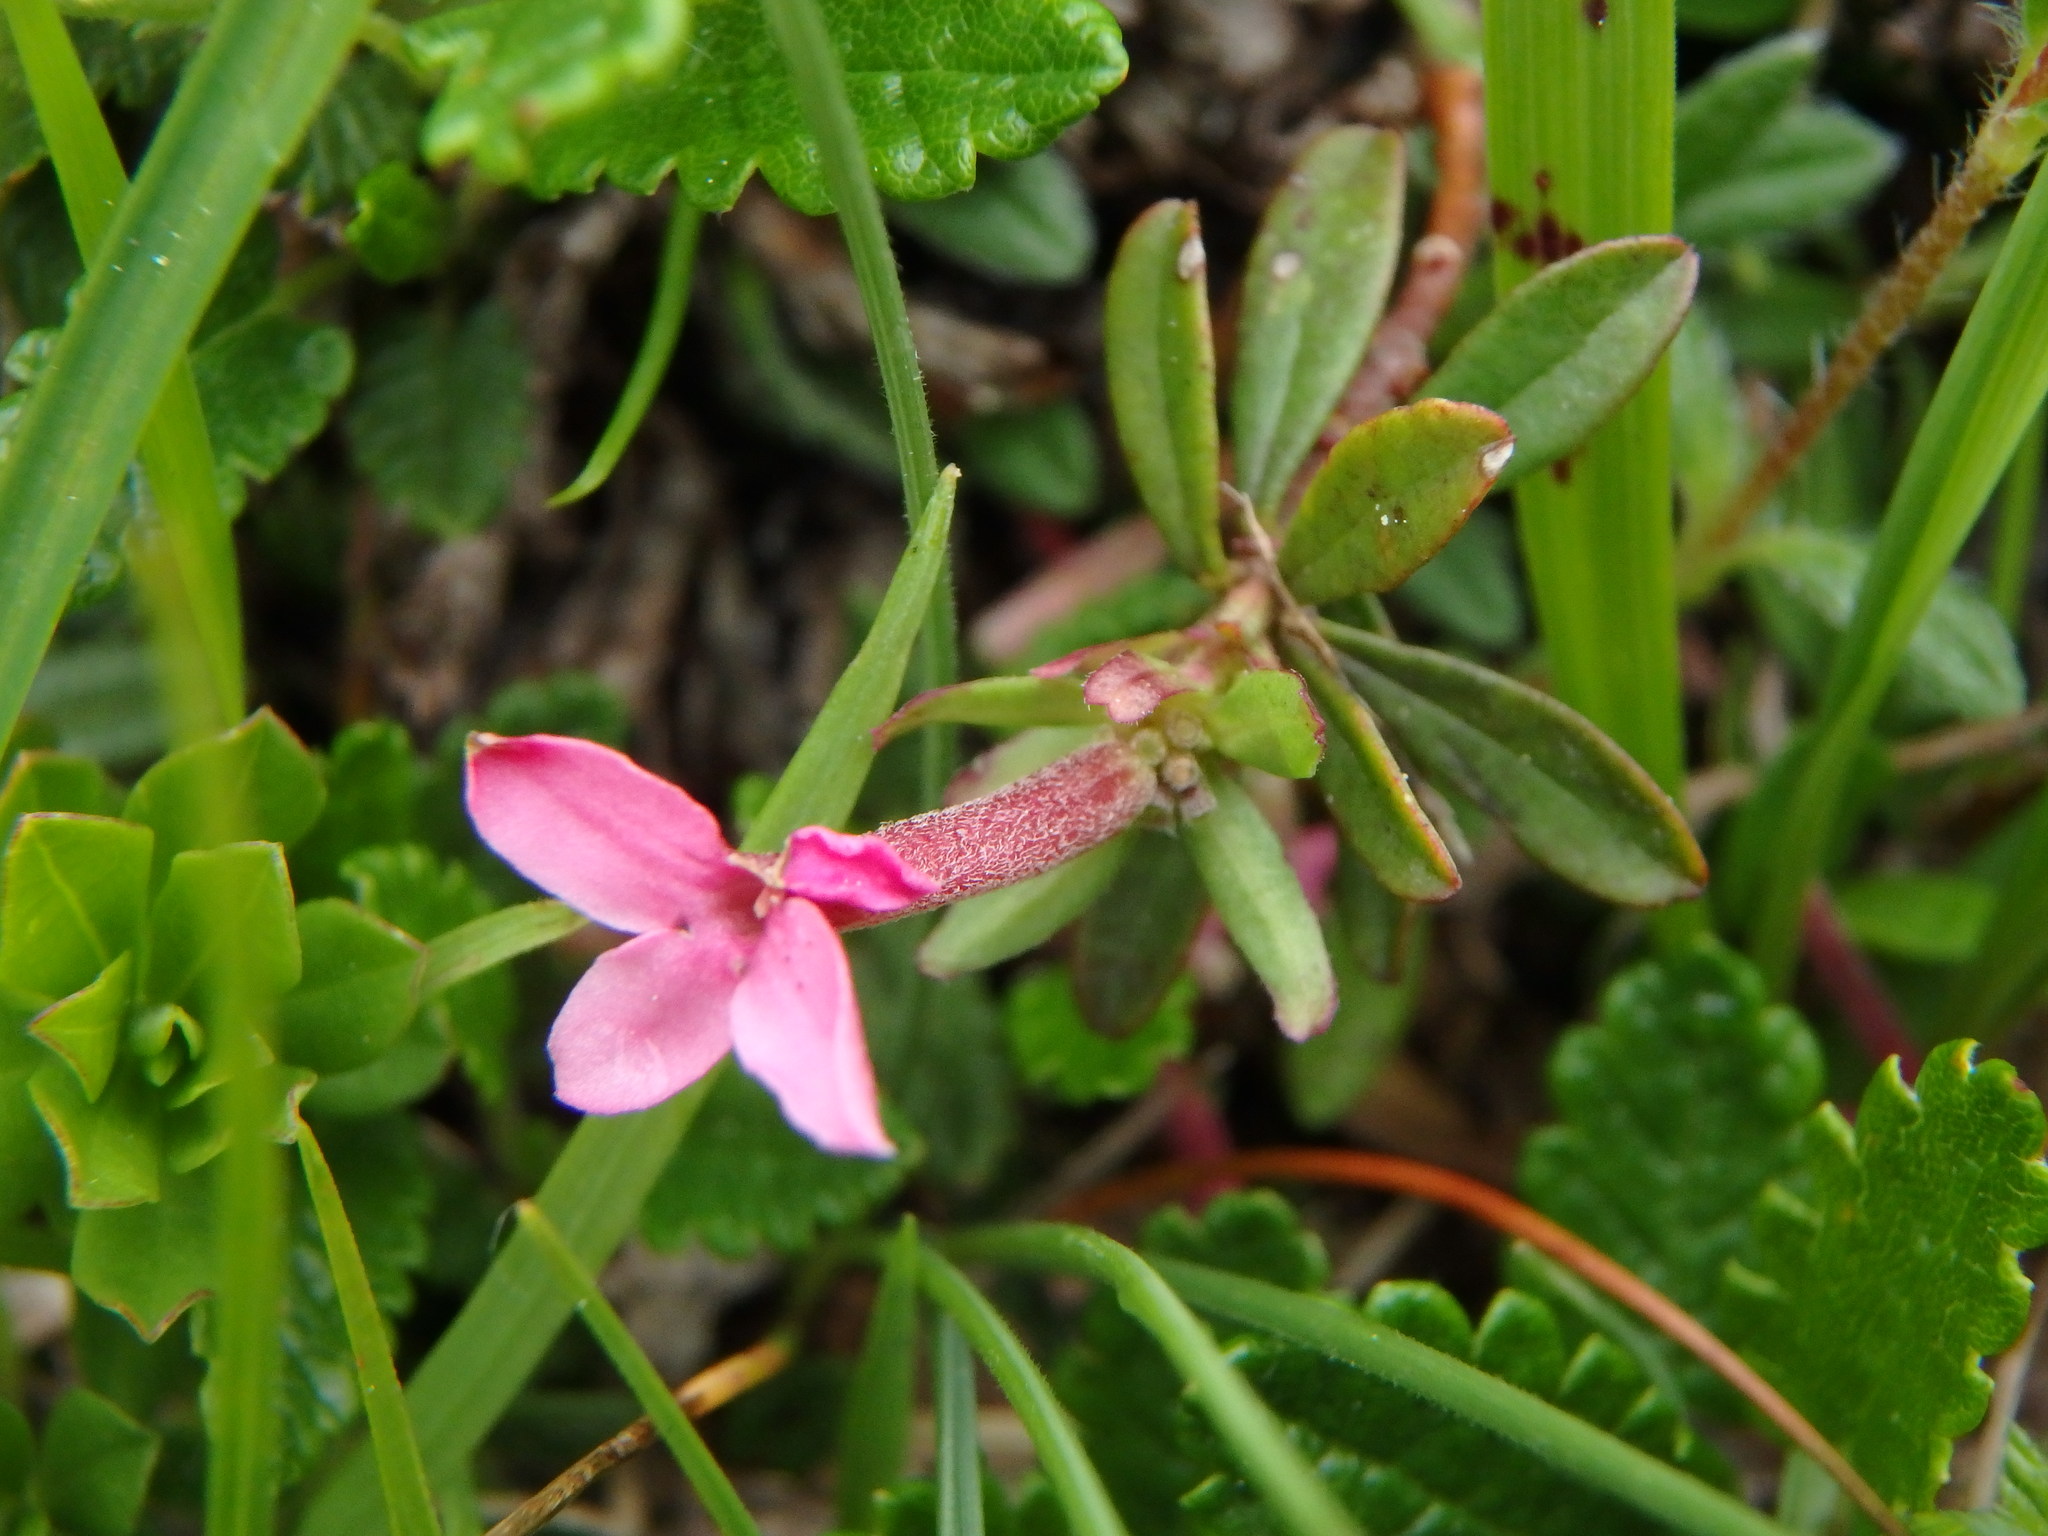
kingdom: Plantae
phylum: Tracheophyta
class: Magnoliopsida
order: Malvales
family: Thymelaeaceae
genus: Daphne
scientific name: Daphne cneorum
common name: Garland-flower
